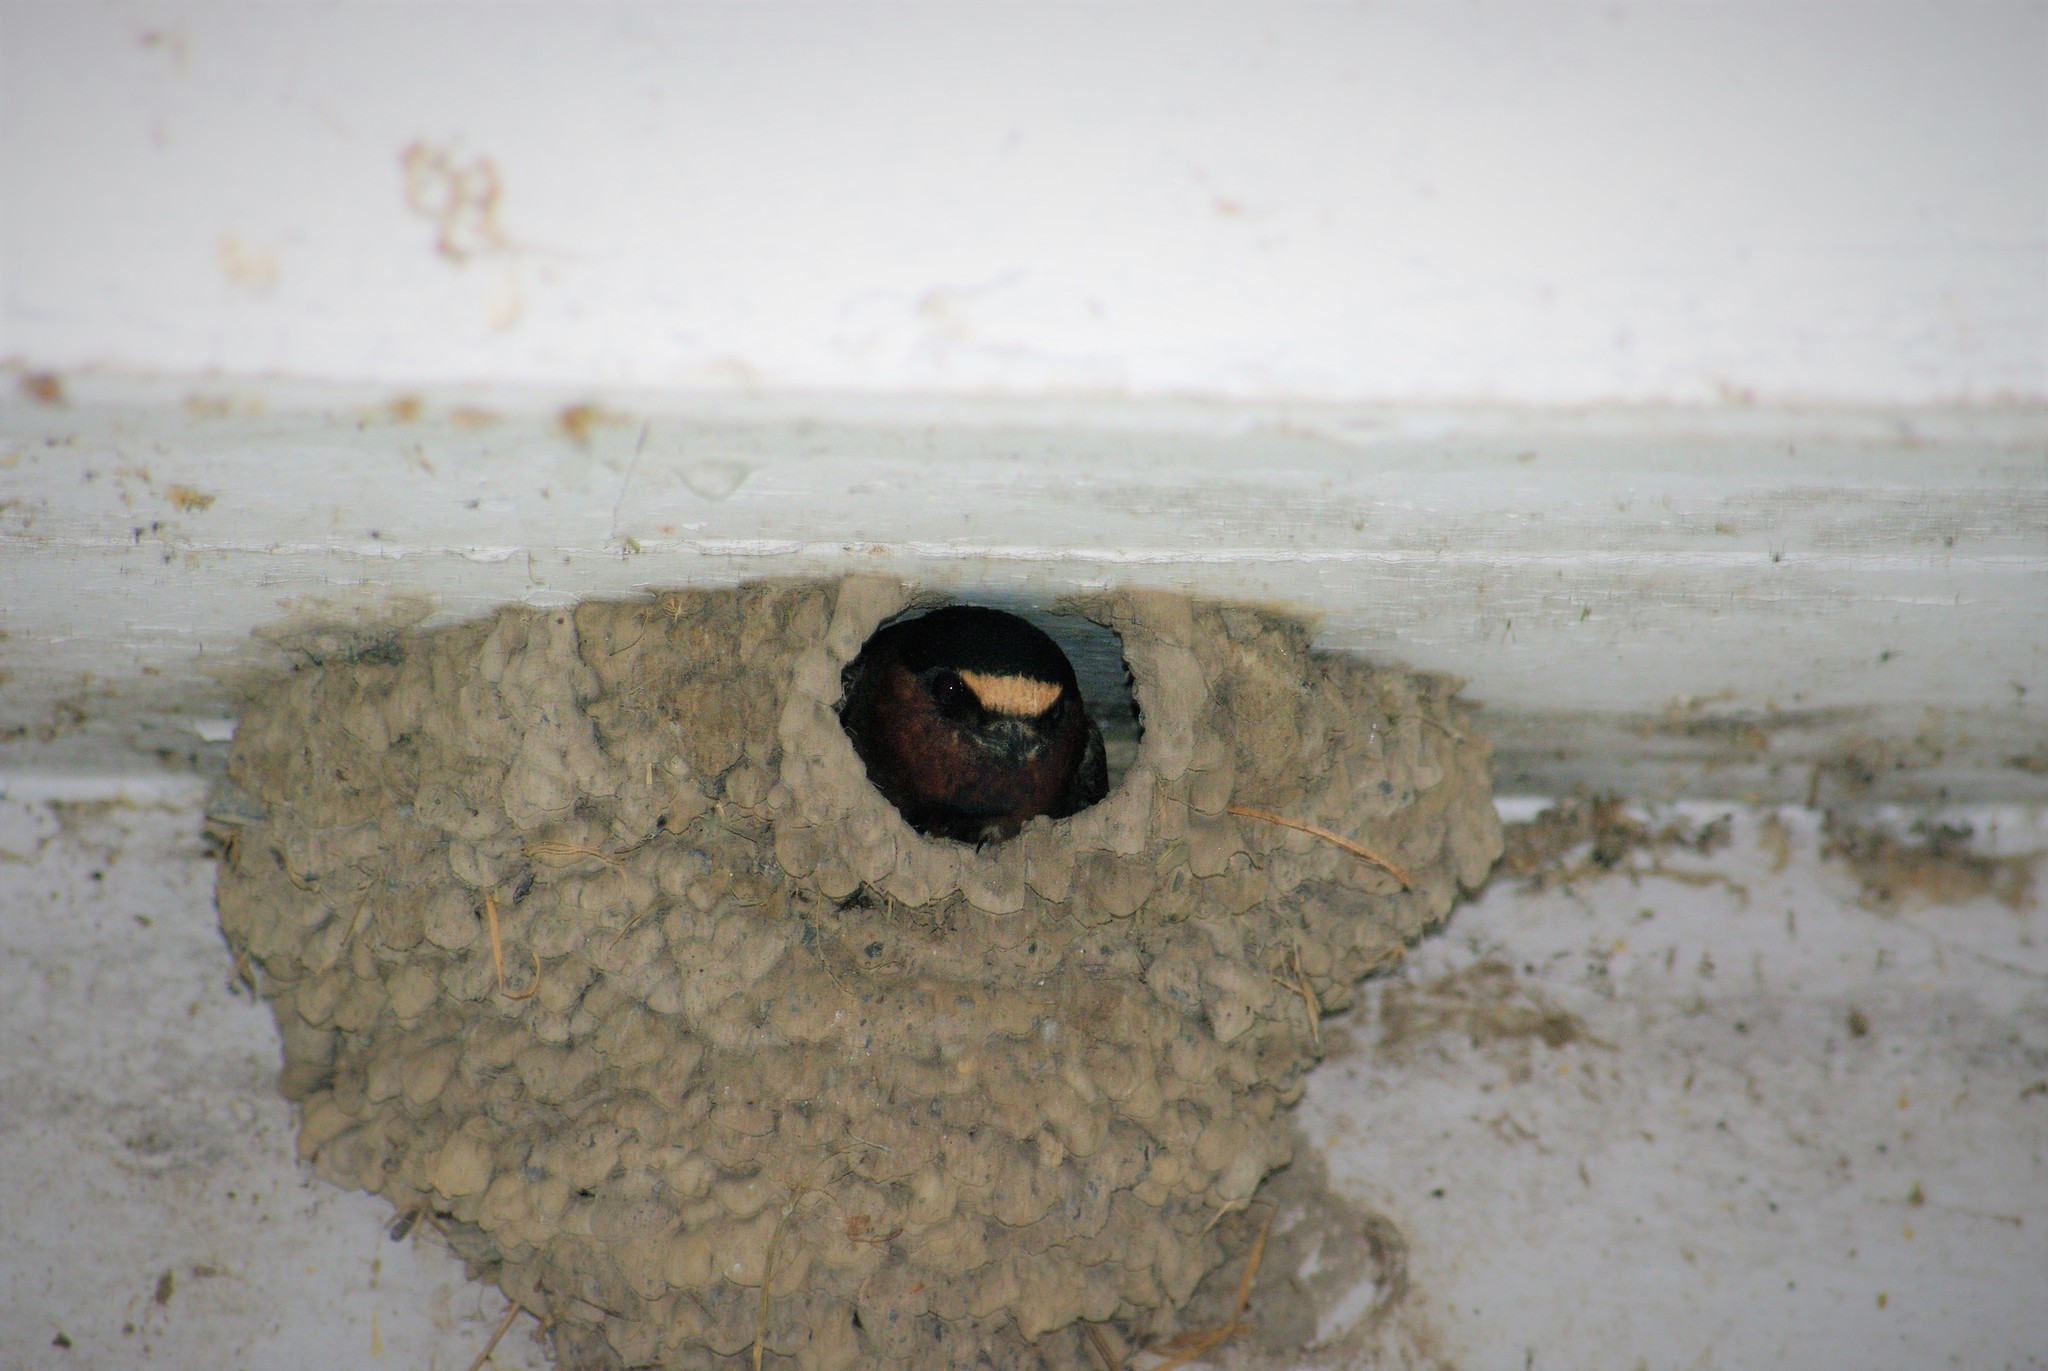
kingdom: Animalia
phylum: Chordata
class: Aves
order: Passeriformes
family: Hirundinidae
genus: Petrochelidon
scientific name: Petrochelidon pyrrhonota
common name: American cliff swallow
